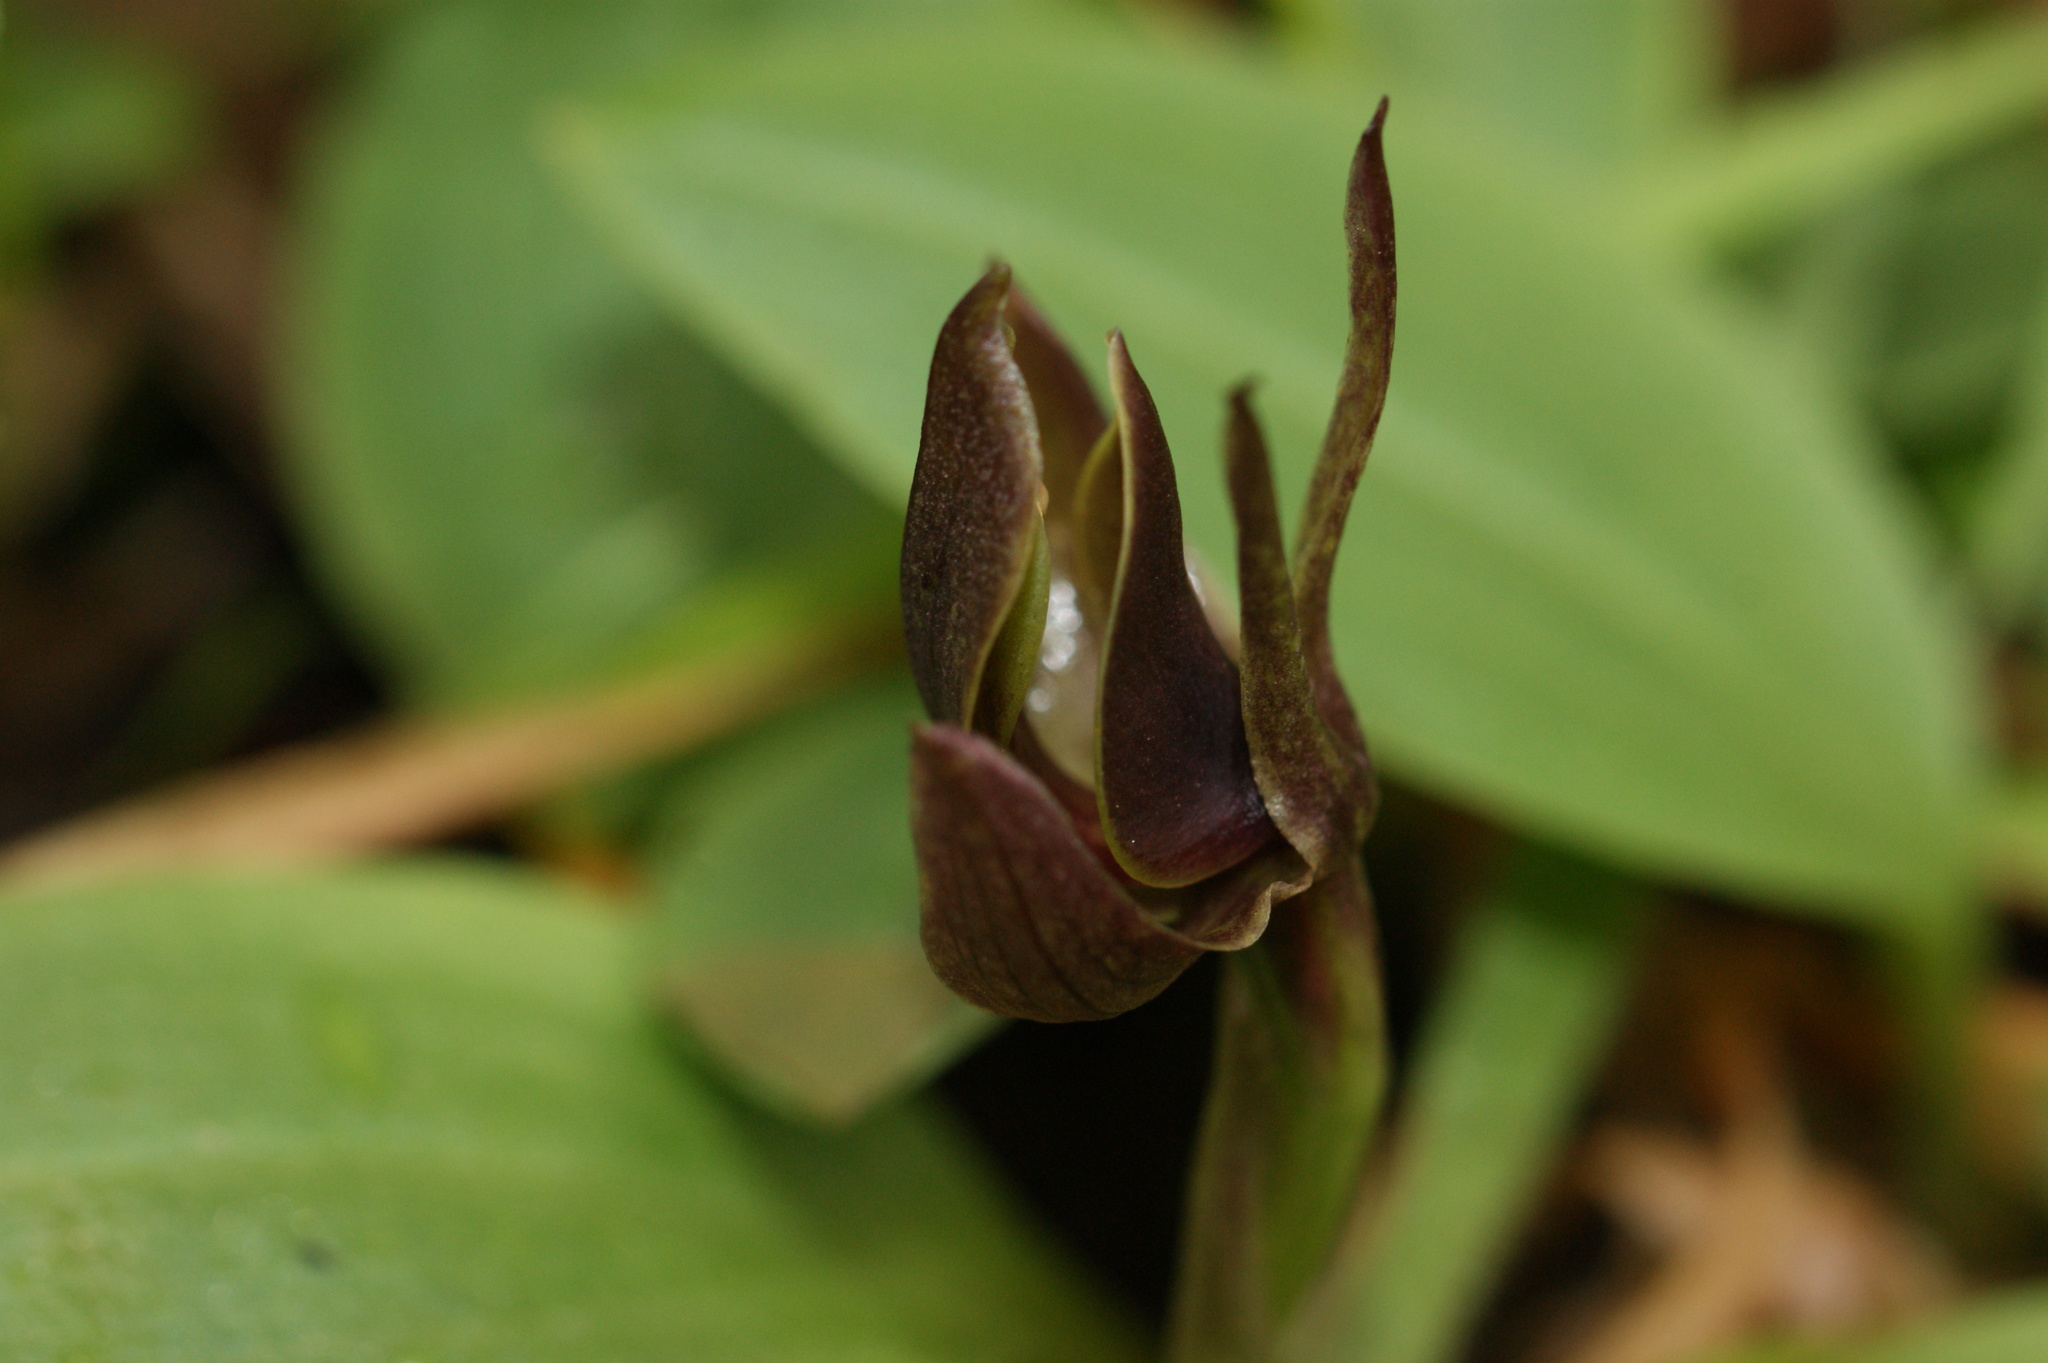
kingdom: Plantae
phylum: Tracheophyta
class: Liliopsida
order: Asparagales
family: Orchidaceae
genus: Chiloglottis
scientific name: Chiloglottis valida
